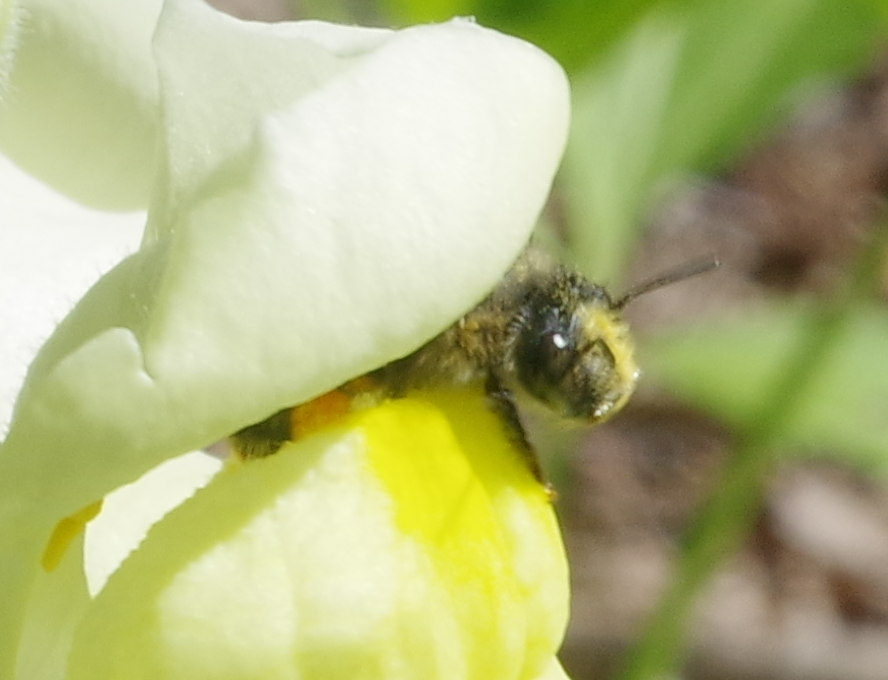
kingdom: Animalia
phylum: Arthropoda
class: Insecta
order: Hymenoptera
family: Apidae
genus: Anthophora
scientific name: Anthophora terminalis
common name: Orange-tipped wood-digger bee
